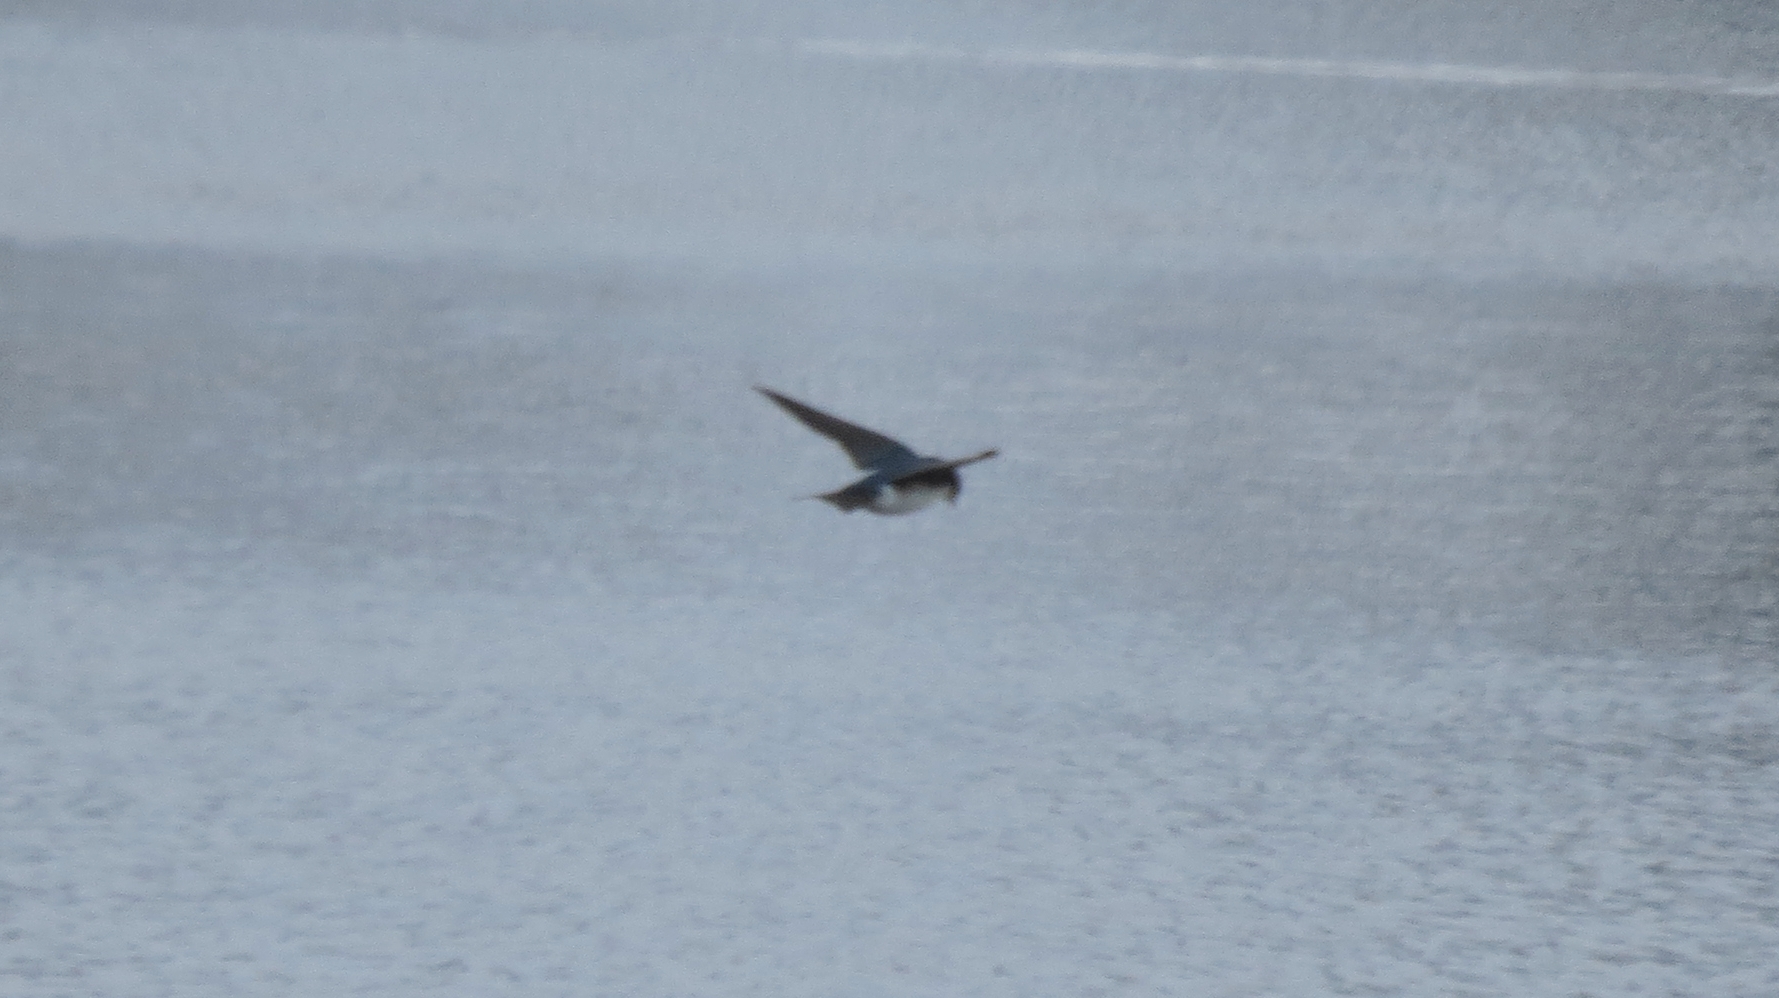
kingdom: Animalia
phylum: Chordata
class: Aves
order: Passeriformes
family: Hirundinidae
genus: Tachycineta
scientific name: Tachycineta bicolor
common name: Tree swallow
